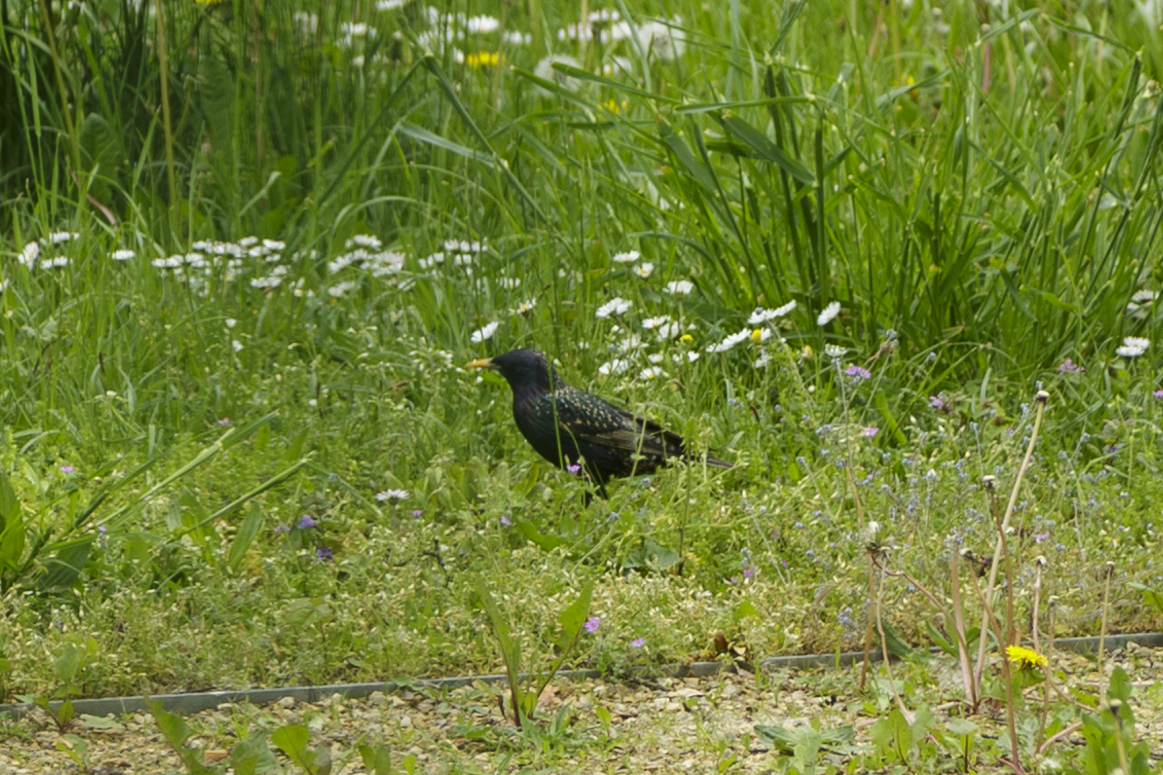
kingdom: Animalia
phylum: Chordata
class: Aves
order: Passeriformes
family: Sturnidae
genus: Sturnus
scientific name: Sturnus vulgaris
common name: Common starling
